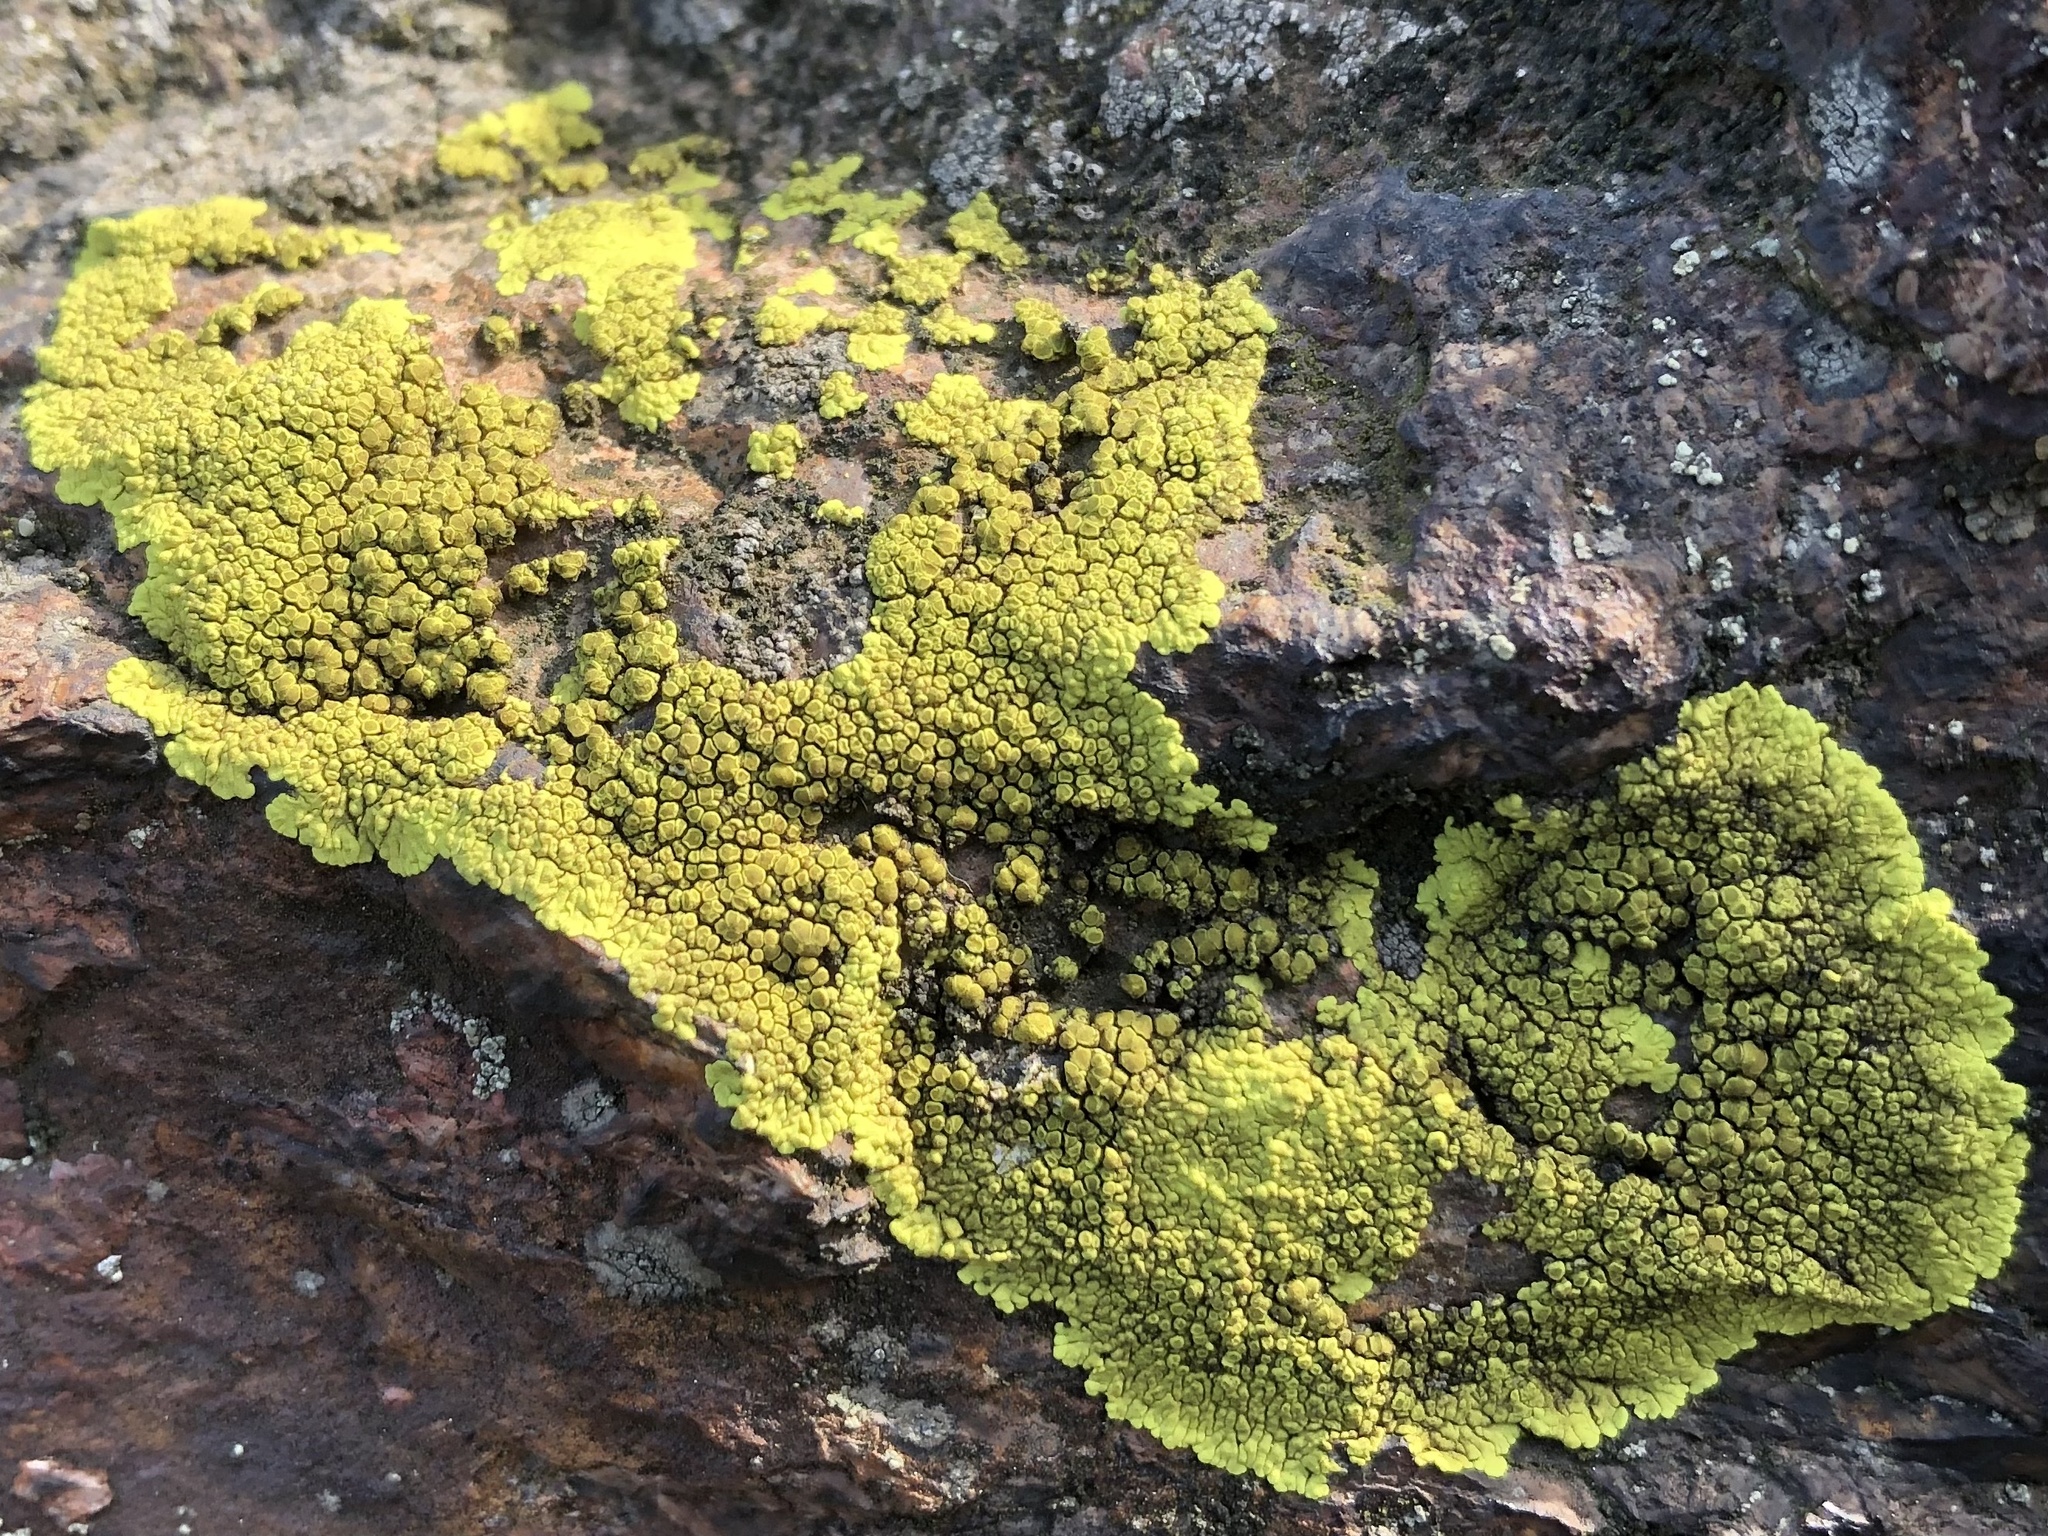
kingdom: Fungi
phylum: Ascomycota
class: Lecanoromycetes
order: Acarosporales
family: Acarosporaceae
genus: Pleopsidium
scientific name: Pleopsidium oxytonum
